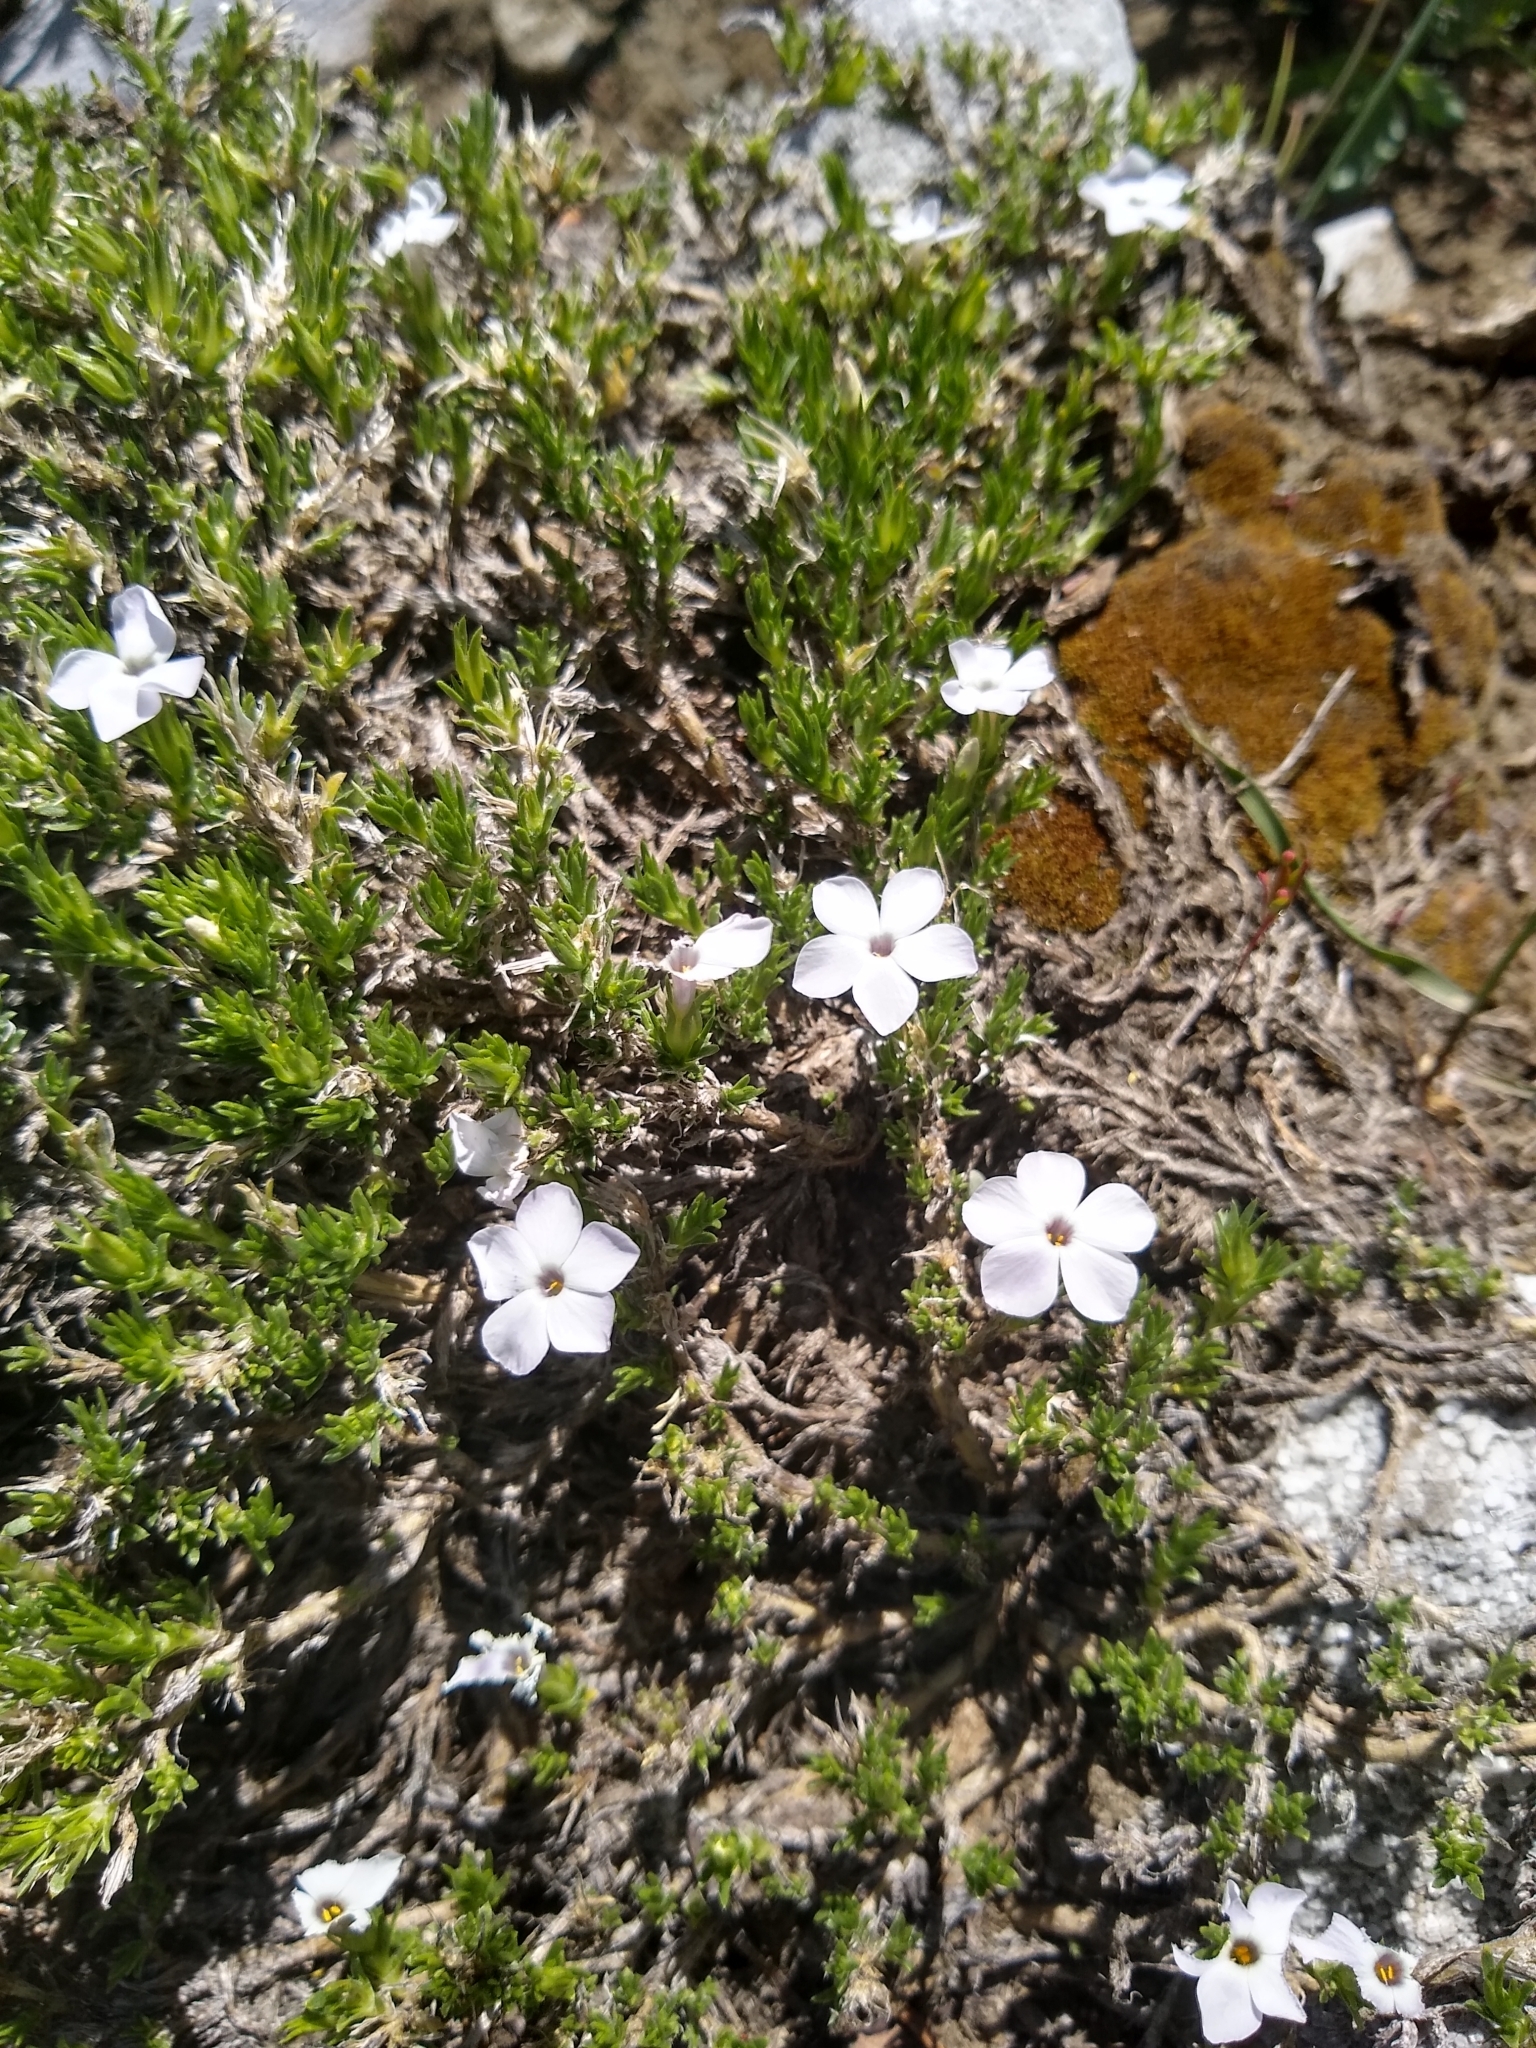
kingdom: Plantae
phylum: Tracheophyta
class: Magnoliopsida
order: Ericales
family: Polemoniaceae
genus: Phlox
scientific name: Phlox diffusa
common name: Mat phlox
